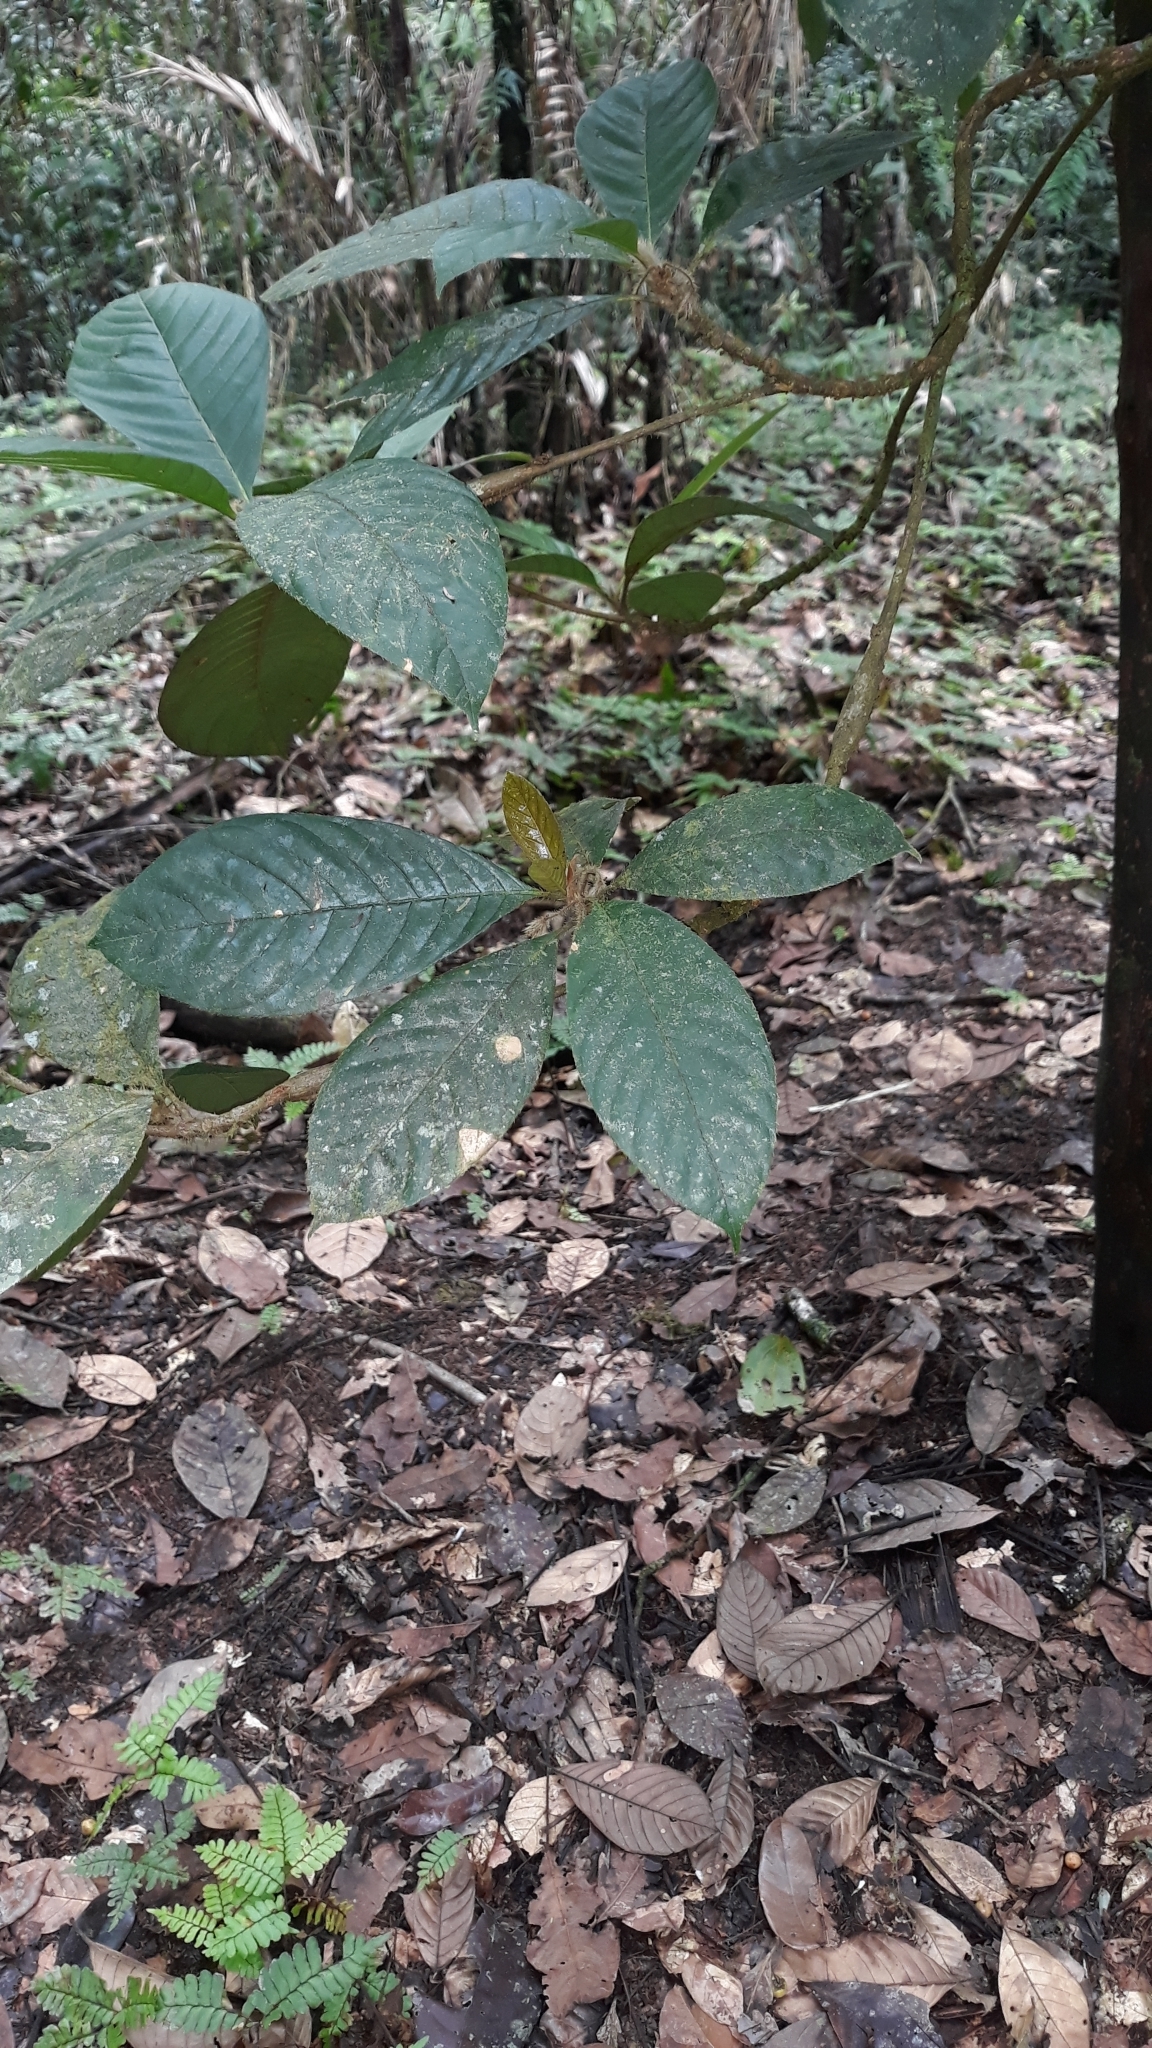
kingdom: Plantae
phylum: Tracheophyta
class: Magnoliopsida
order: Gentianales
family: Rubiaceae
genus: Duroia
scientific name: Duroia hirsuta
